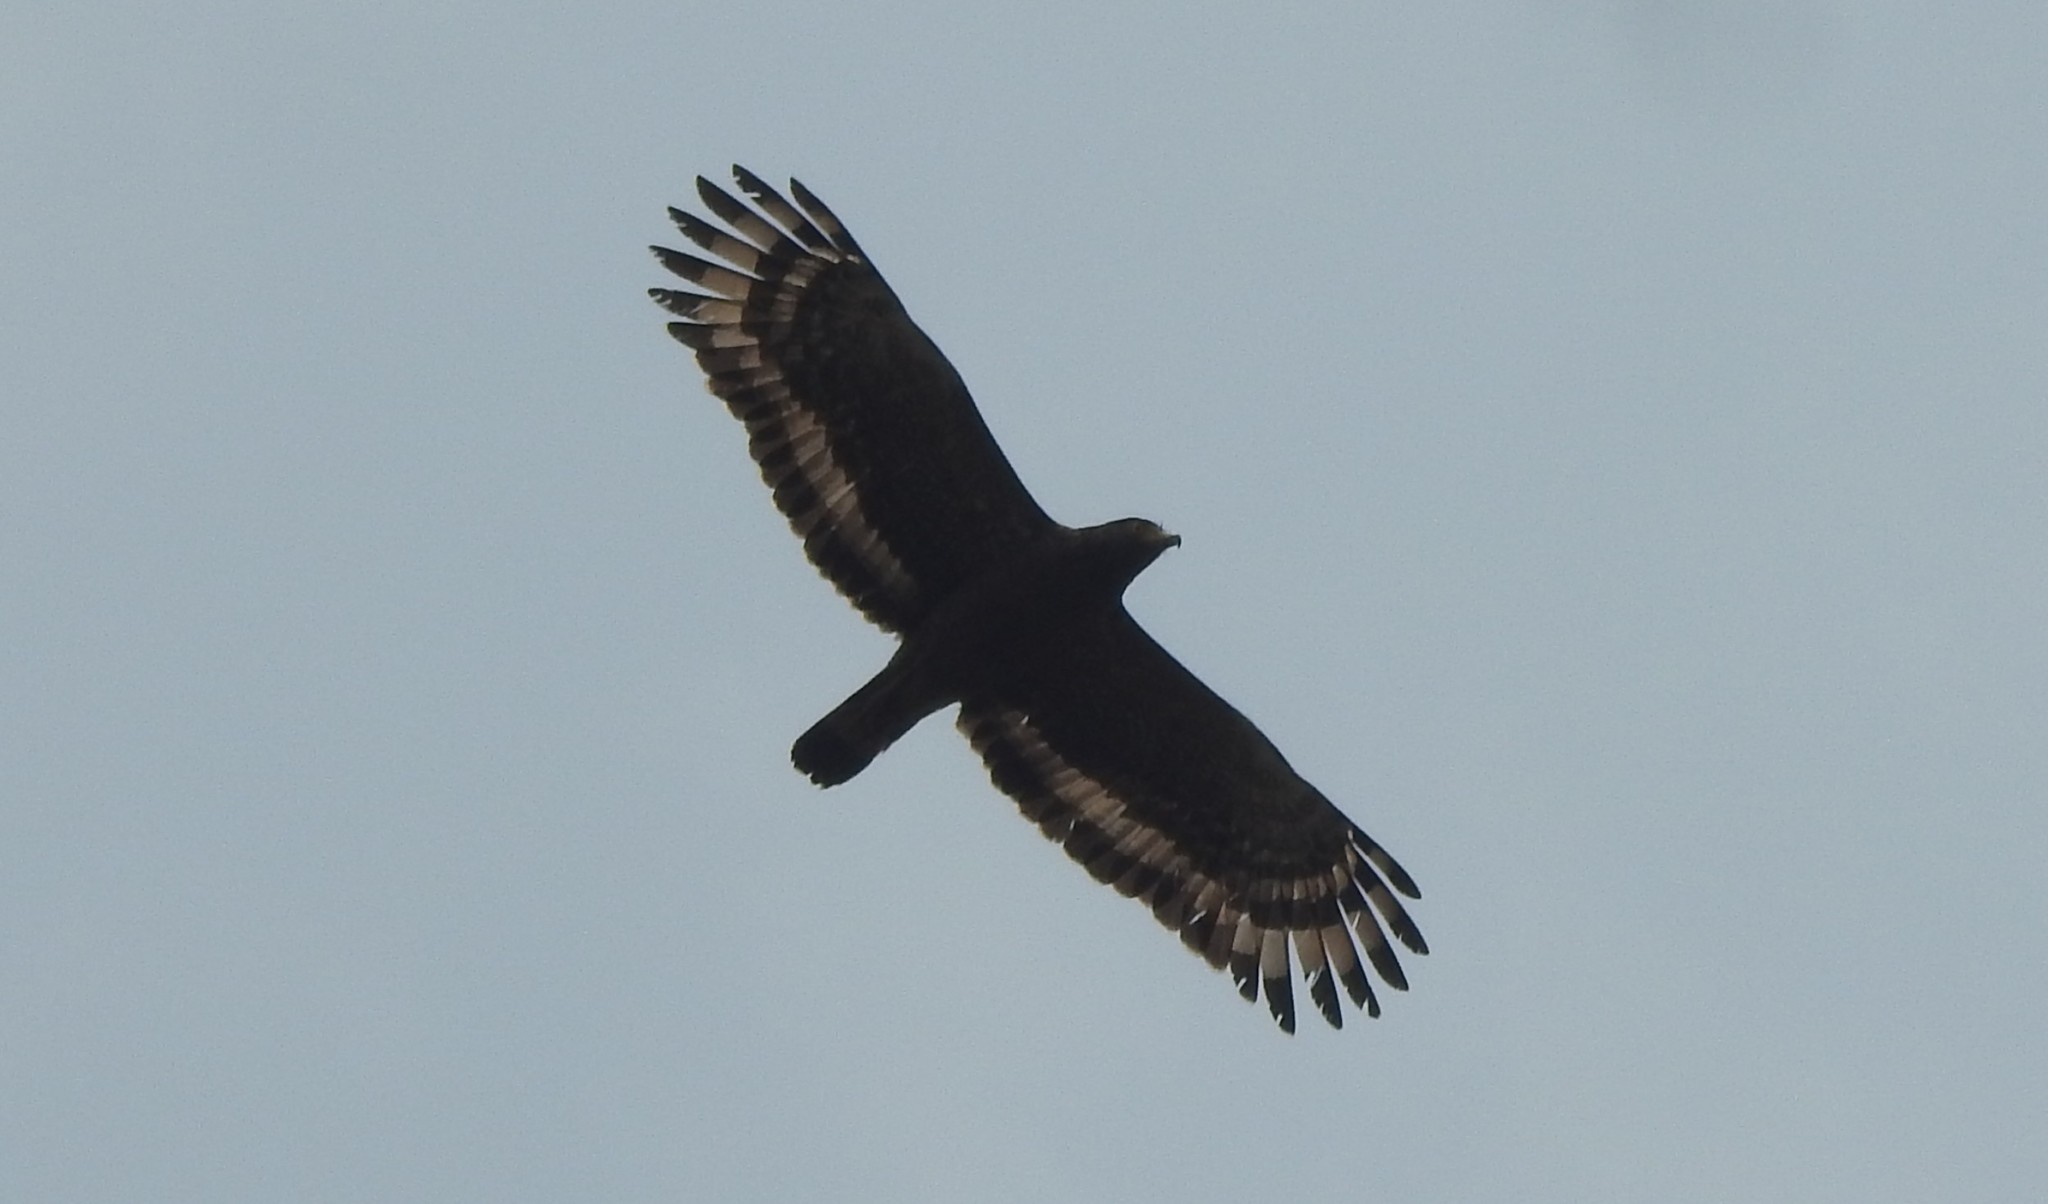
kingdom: Animalia
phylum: Chordata
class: Aves
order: Accipitriformes
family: Accipitridae
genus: Spilornis
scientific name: Spilornis cheela
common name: Crested serpent eagle
